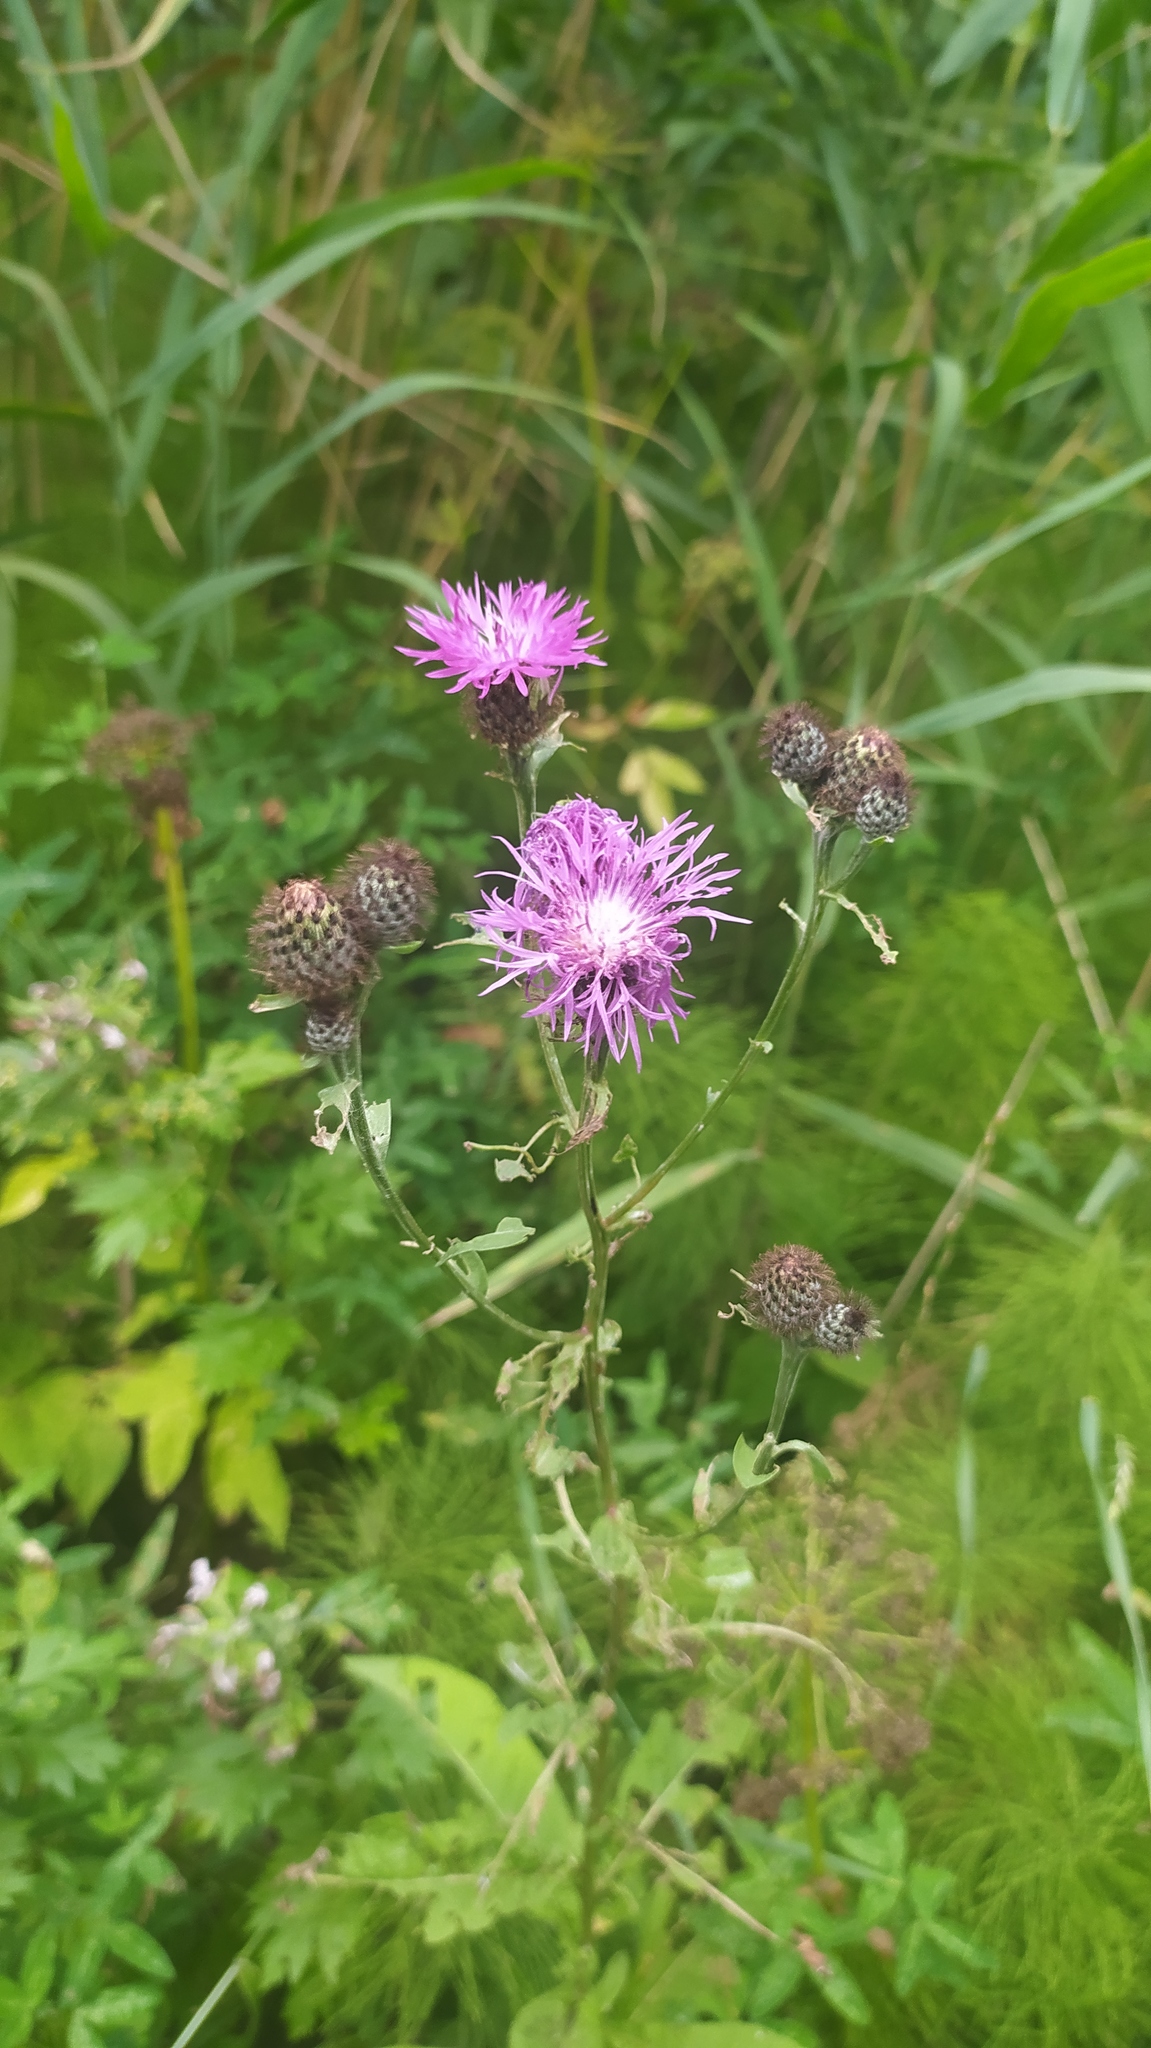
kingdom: Plantae
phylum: Tracheophyta
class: Magnoliopsida
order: Asterales
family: Asteraceae
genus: Centaurea
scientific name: Centaurea phrygia
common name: Wig knapweed
